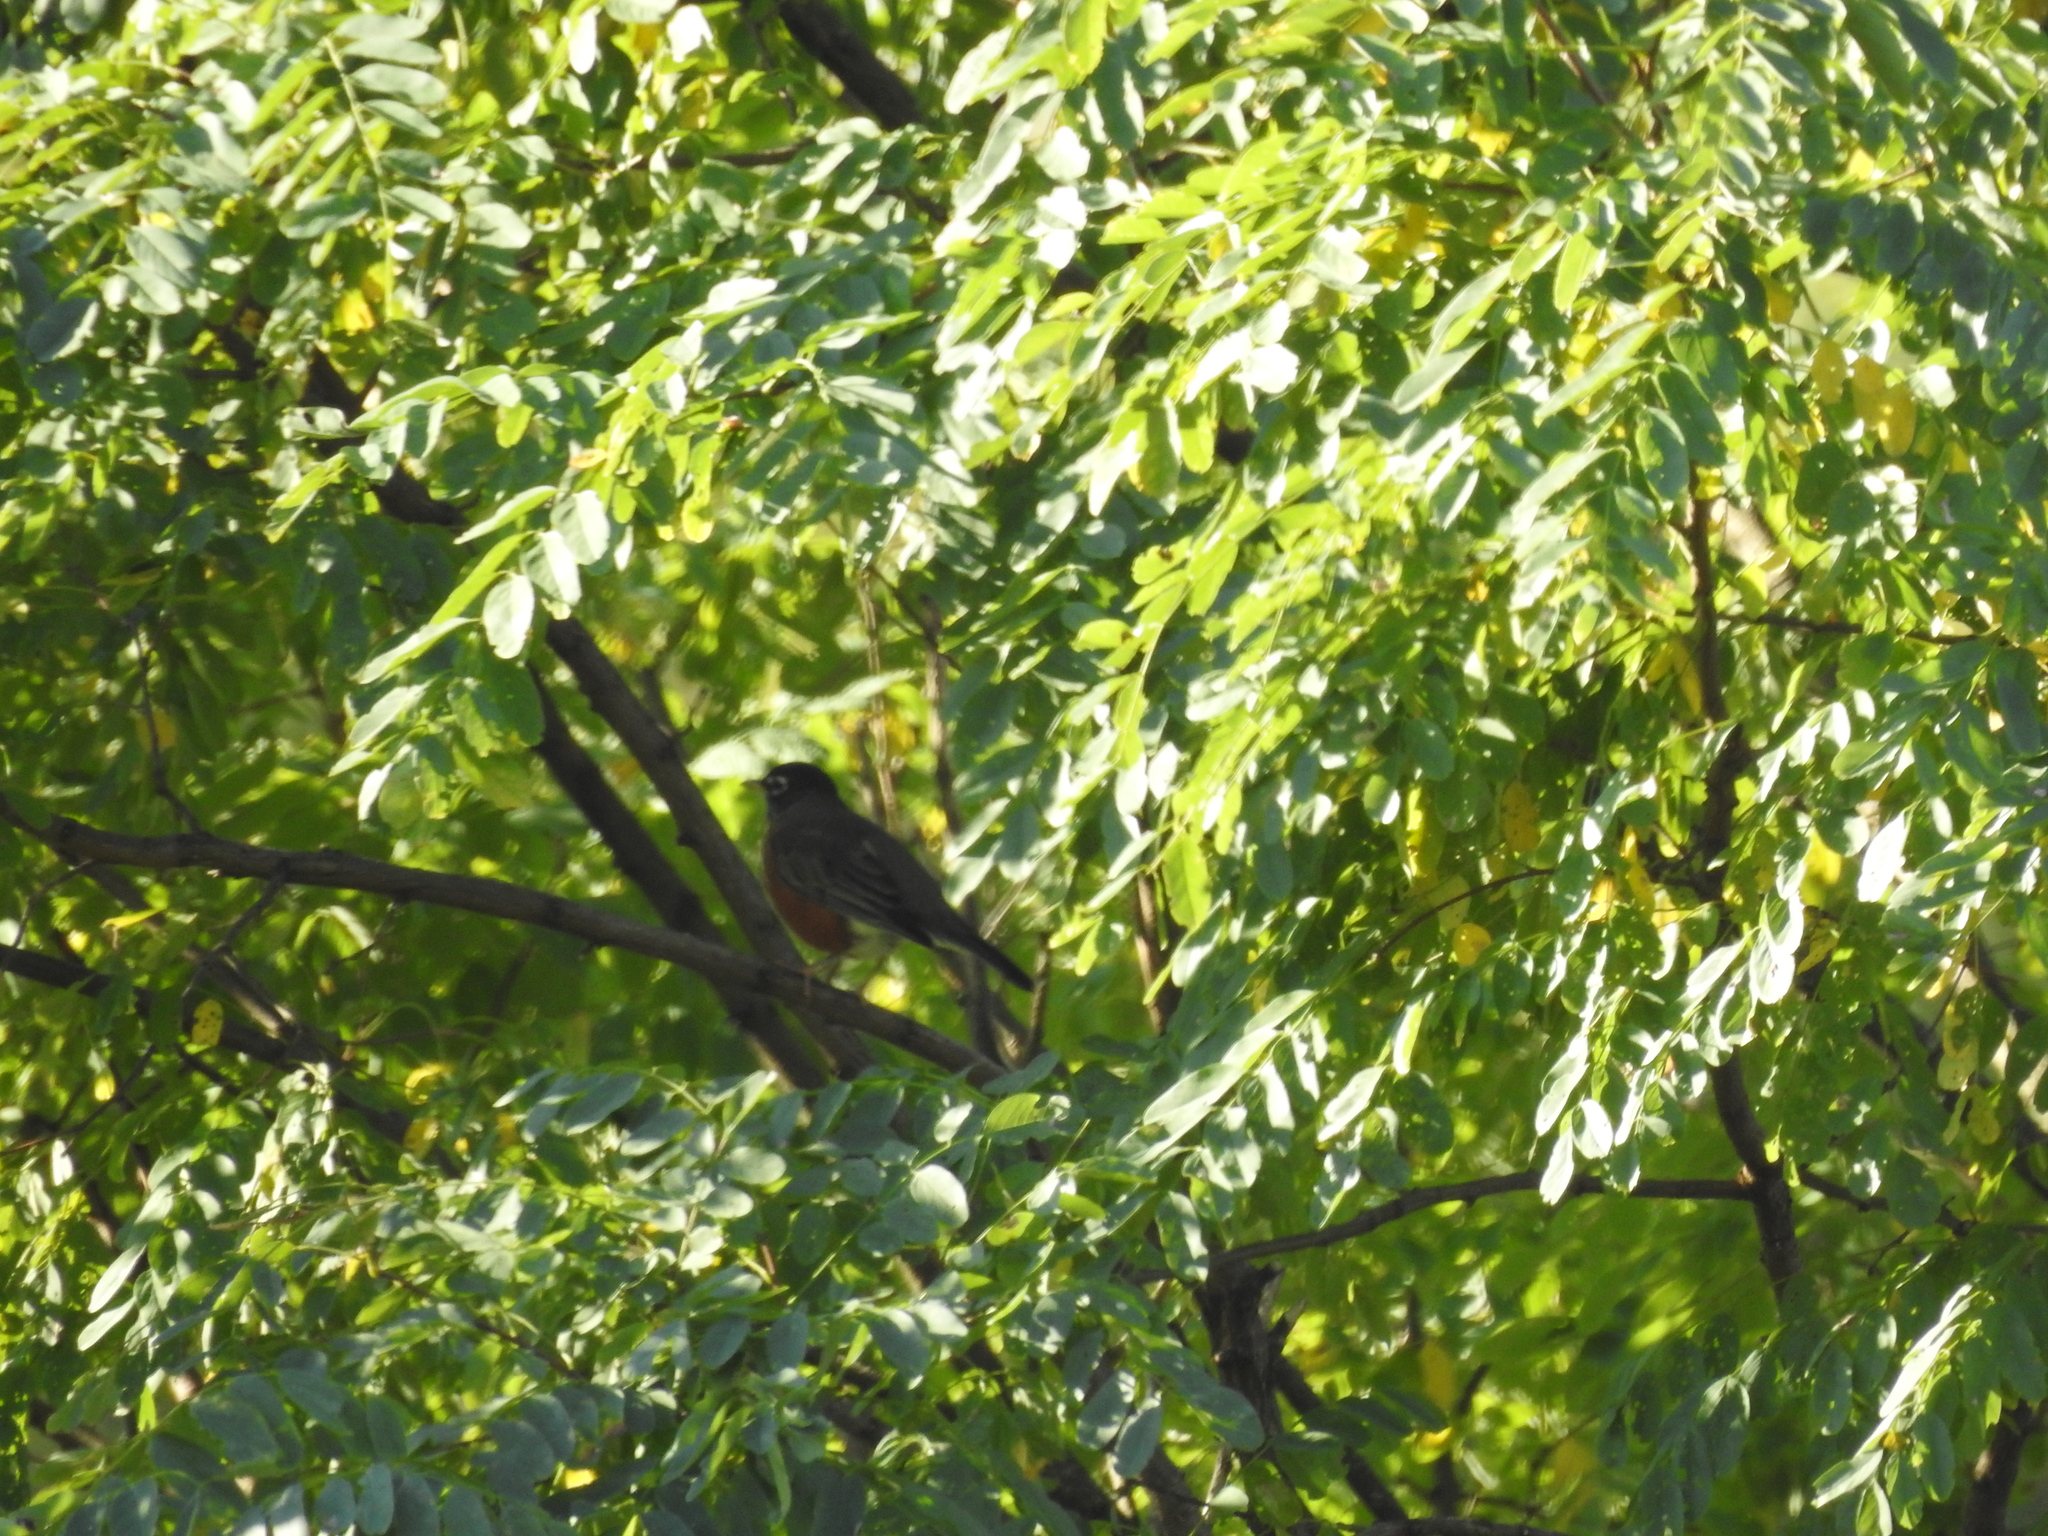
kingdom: Animalia
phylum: Chordata
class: Aves
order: Passeriformes
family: Turdidae
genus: Turdus
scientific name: Turdus migratorius
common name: American robin
